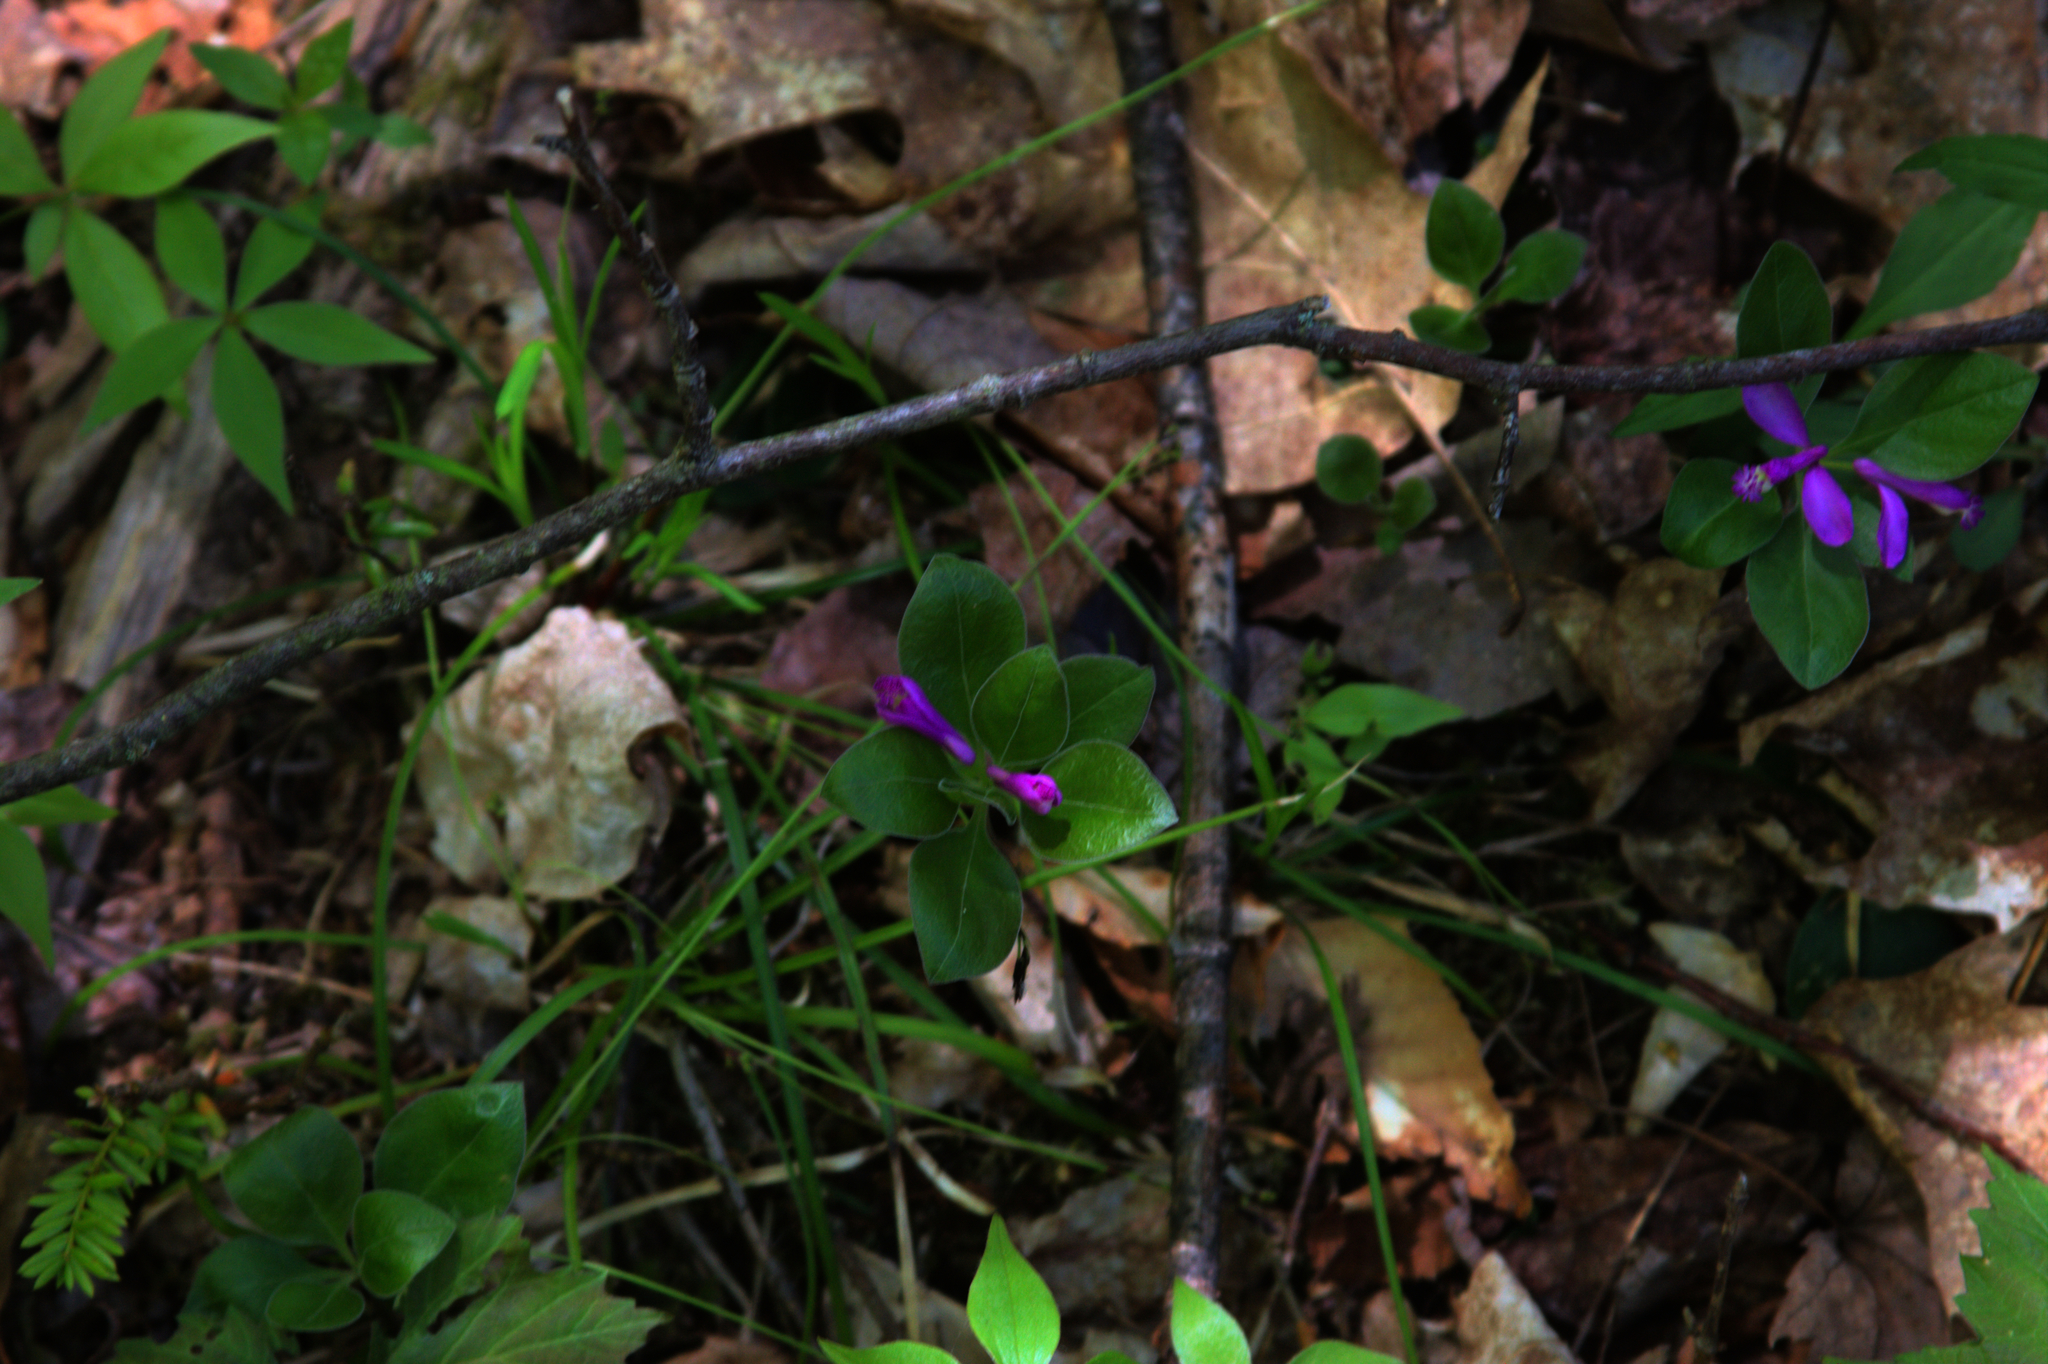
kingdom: Plantae
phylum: Tracheophyta
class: Magnoliopsida
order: Fabales
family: Polygalaceae
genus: Polygaloides
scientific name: Polygaloides paucifolia
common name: Bird-on-the-wing
